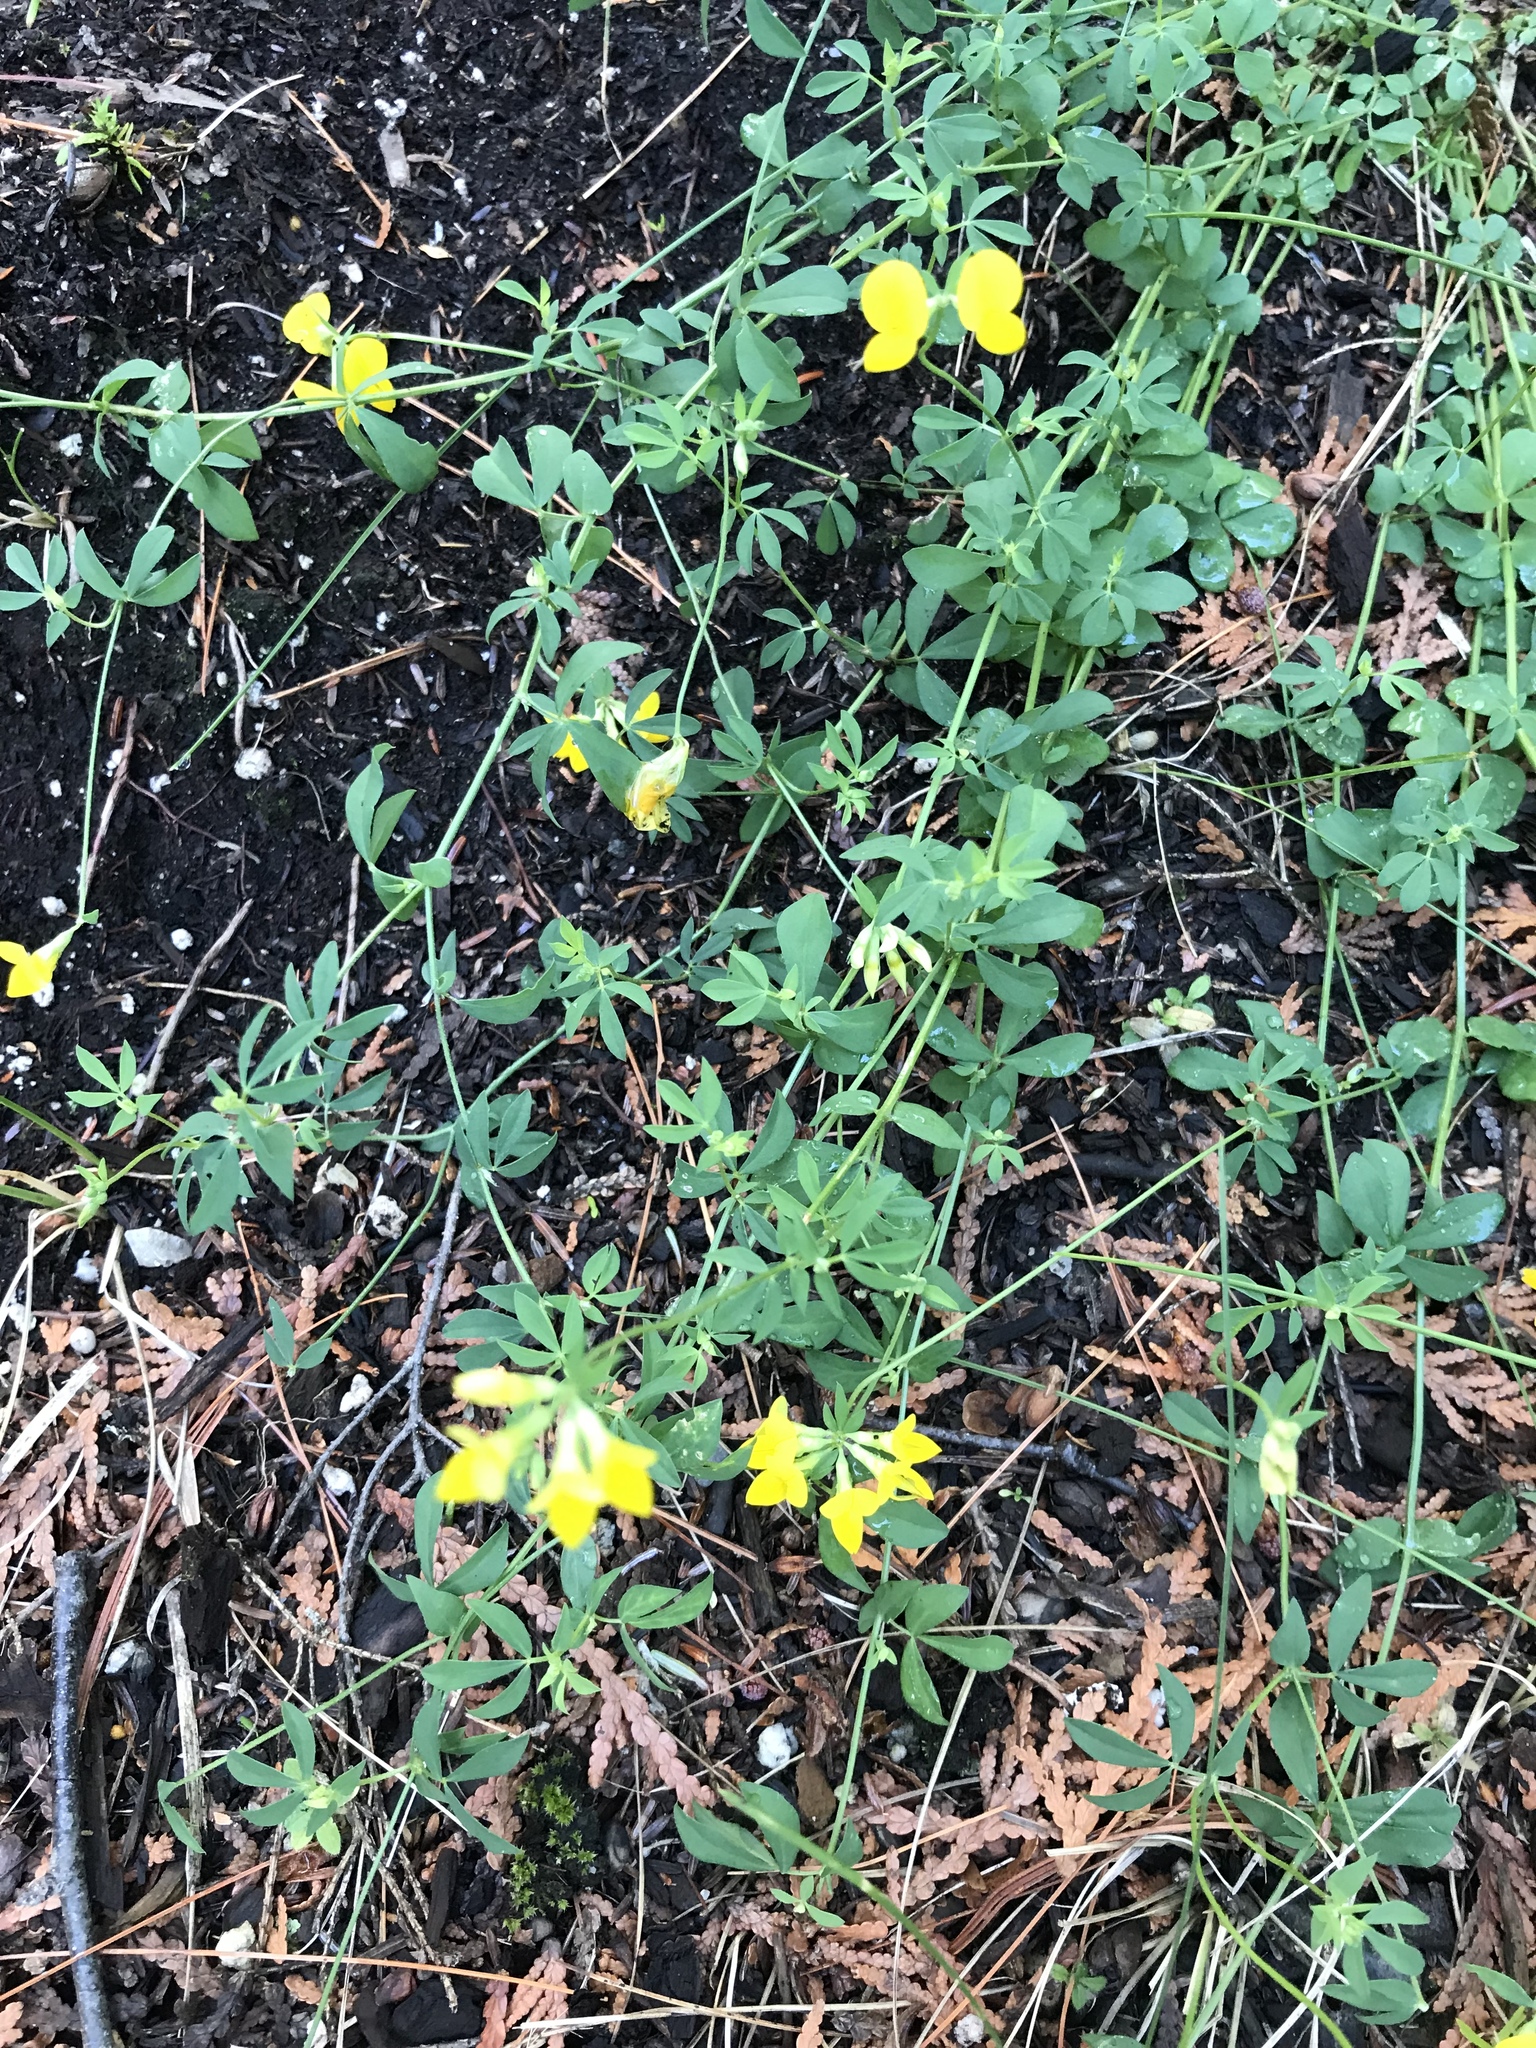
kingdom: Plantae
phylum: Tracheophyta
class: Magnoliopsida
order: Fabales
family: Fabaceae
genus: Lotus
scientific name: Lotus corniculatus
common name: Common bird's-foot-trefoil
